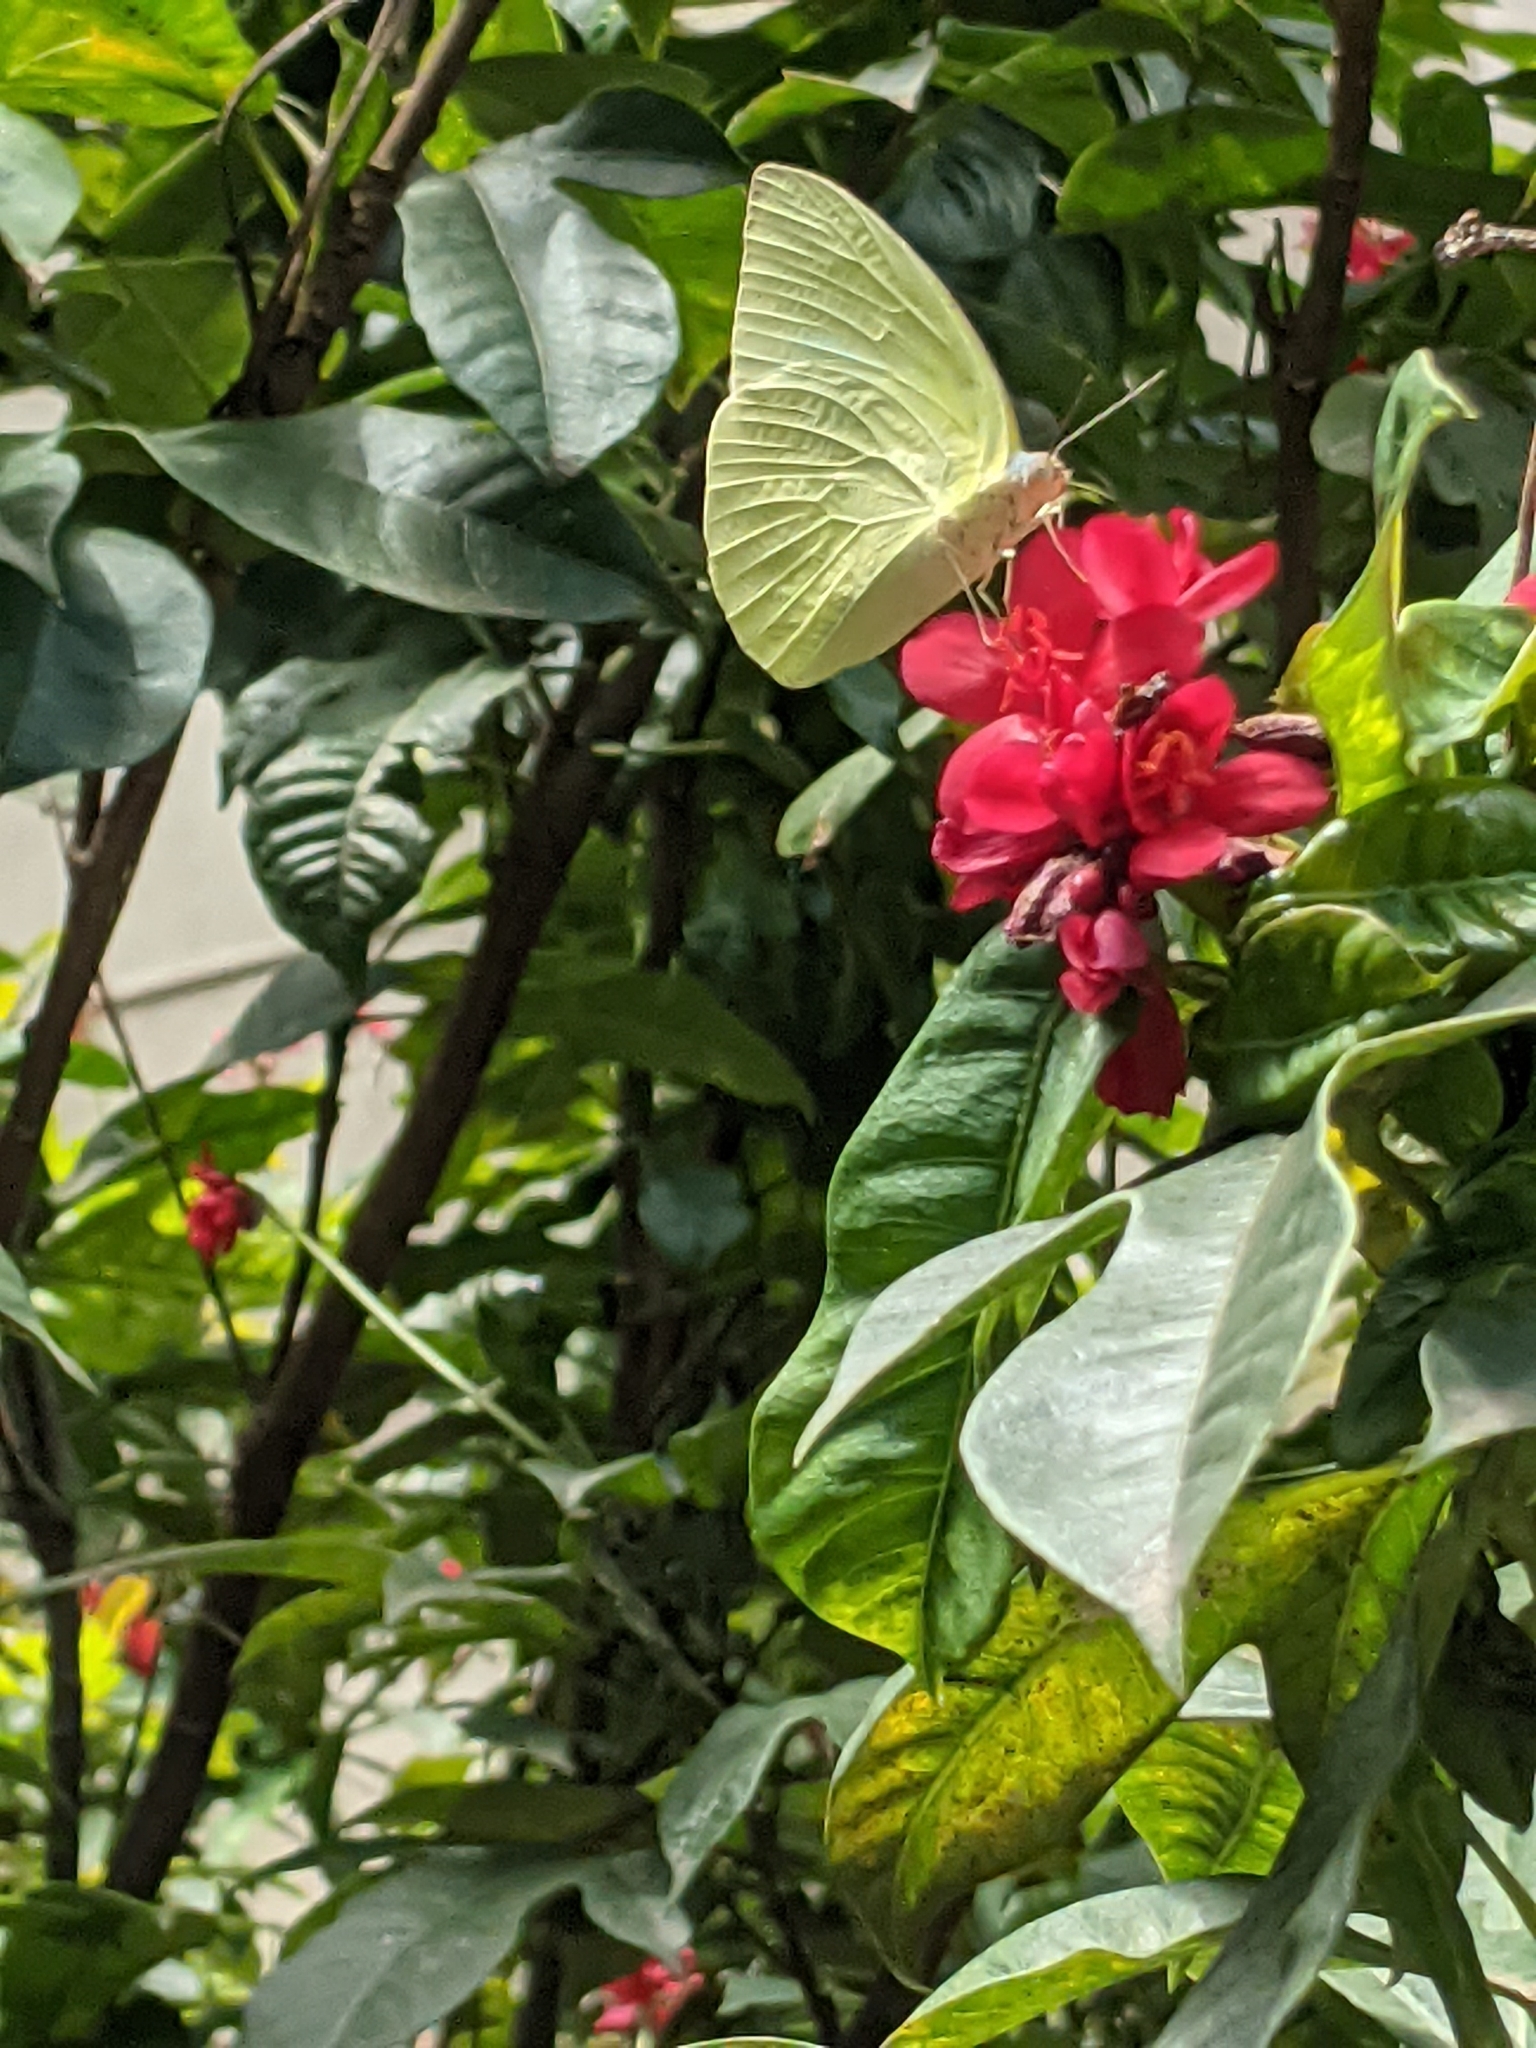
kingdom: Animalia
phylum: Arthropoda
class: Insecta
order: Lepidoptera
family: Pieridae
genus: Catopsilia
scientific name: Catopsilia pomona
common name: Common emigrant
